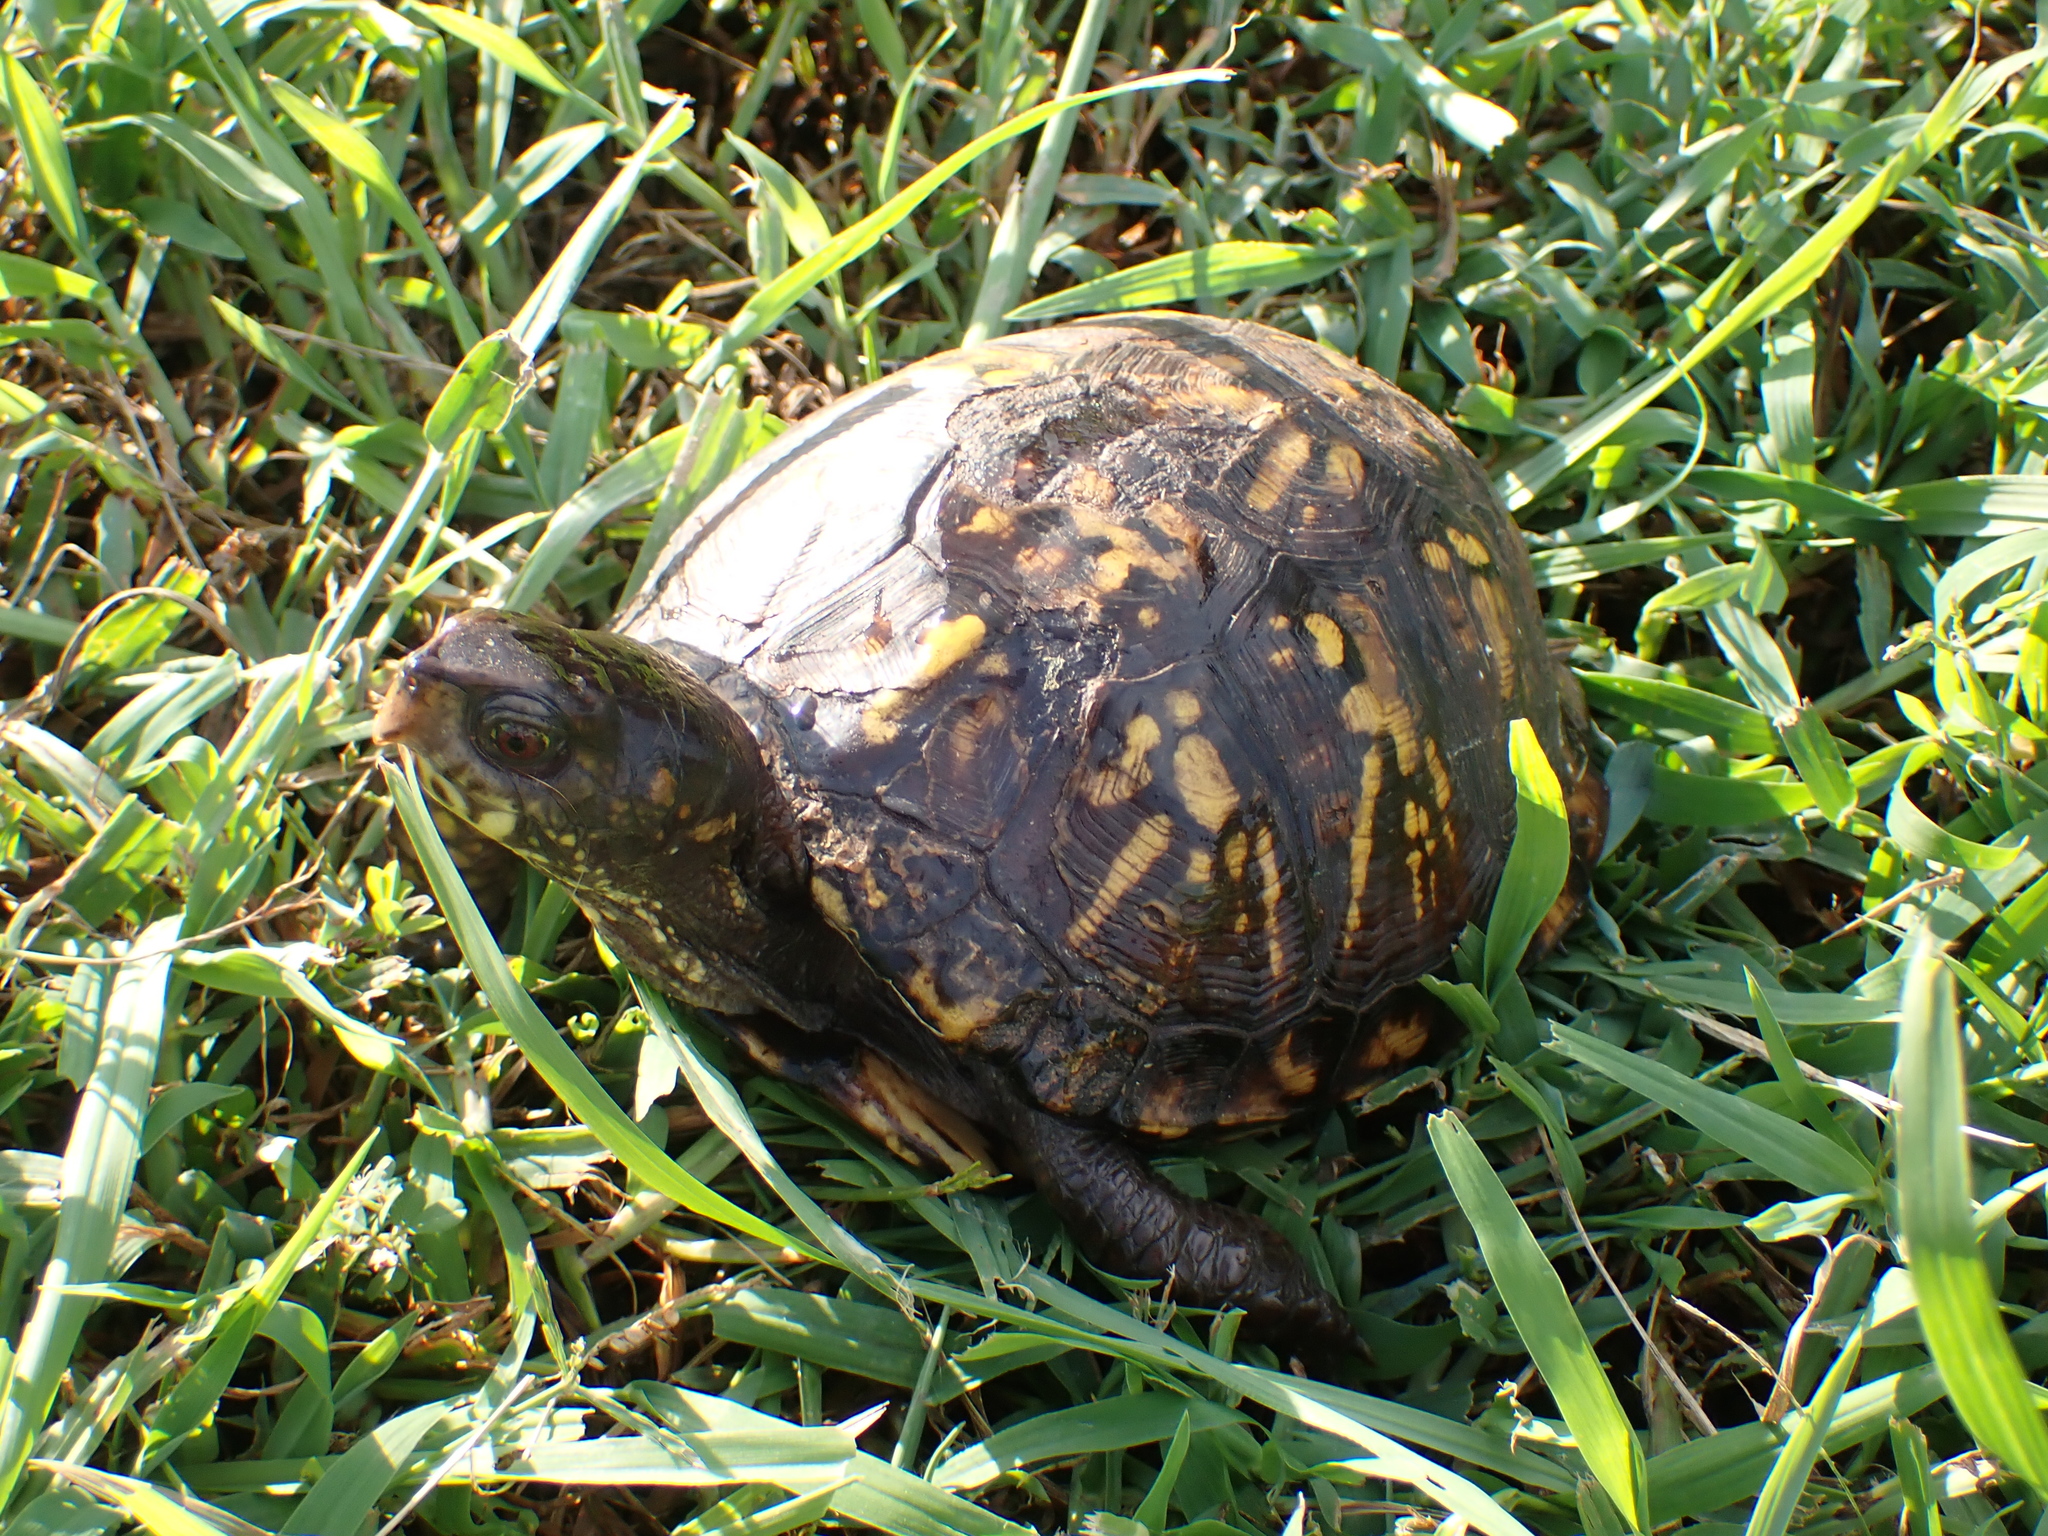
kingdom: Animalia
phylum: Chordata
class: Testudines
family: Emydidae
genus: Terrapene
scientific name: Terrapene carolina
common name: Common box turtle
